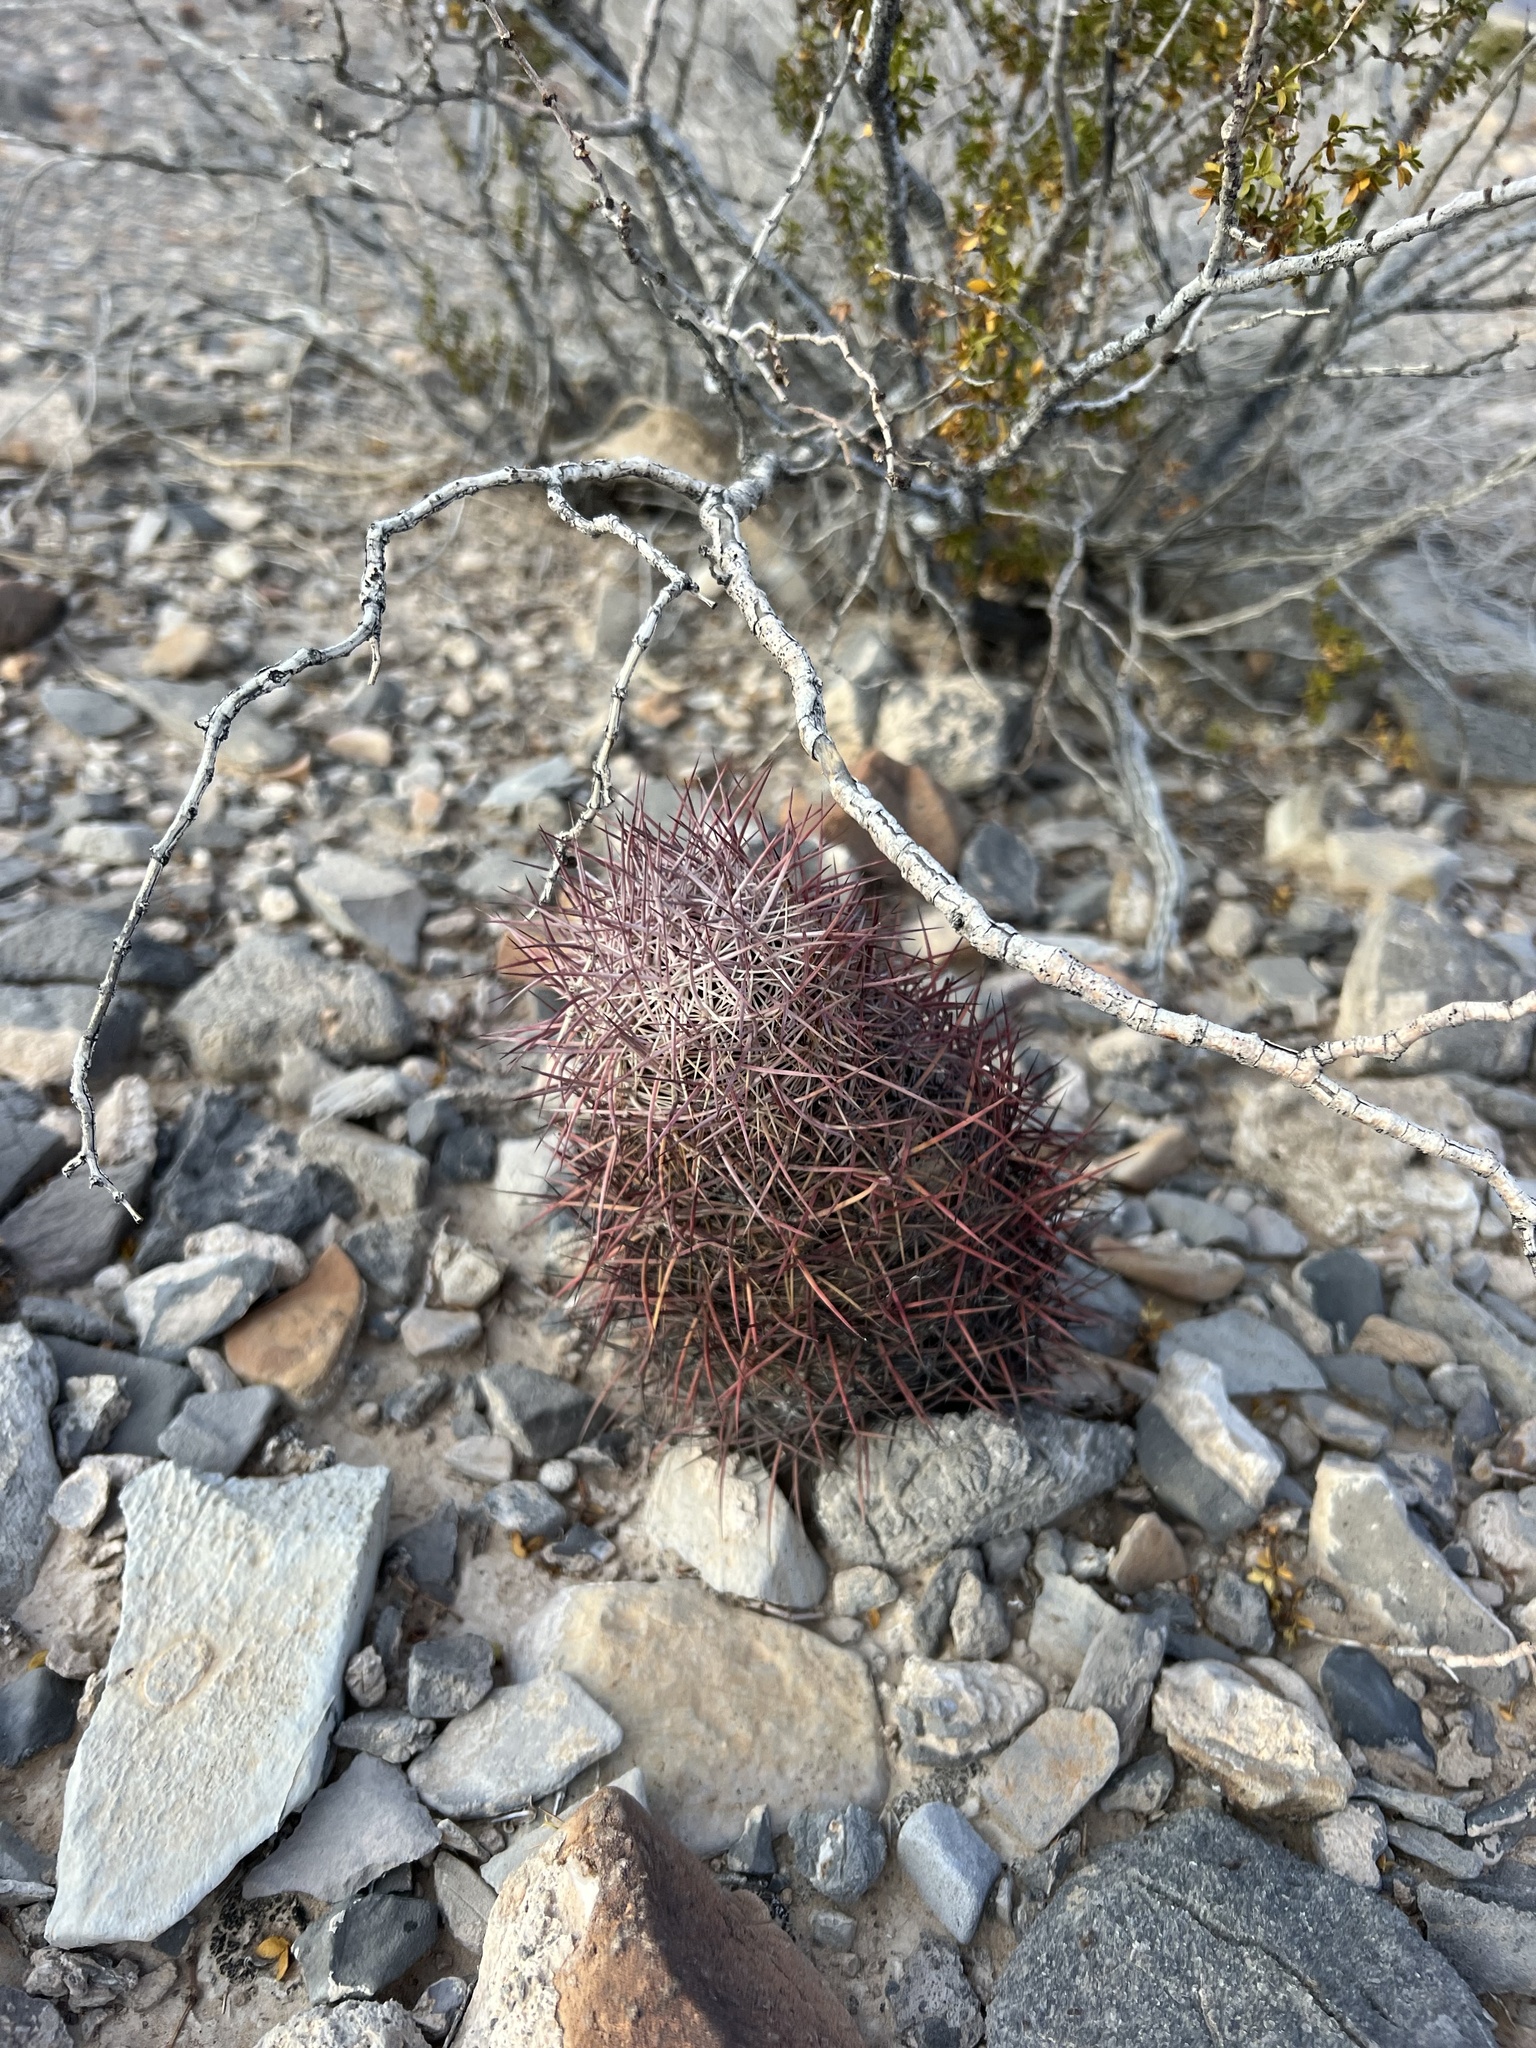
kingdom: Plantae
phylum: Tracheophyta
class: Magnoliopsida
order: Caryophyllales
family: Cactaceae
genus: Sclerocactus
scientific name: Sclerocactus johnsonii
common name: Eight-spine fishhook cactus
